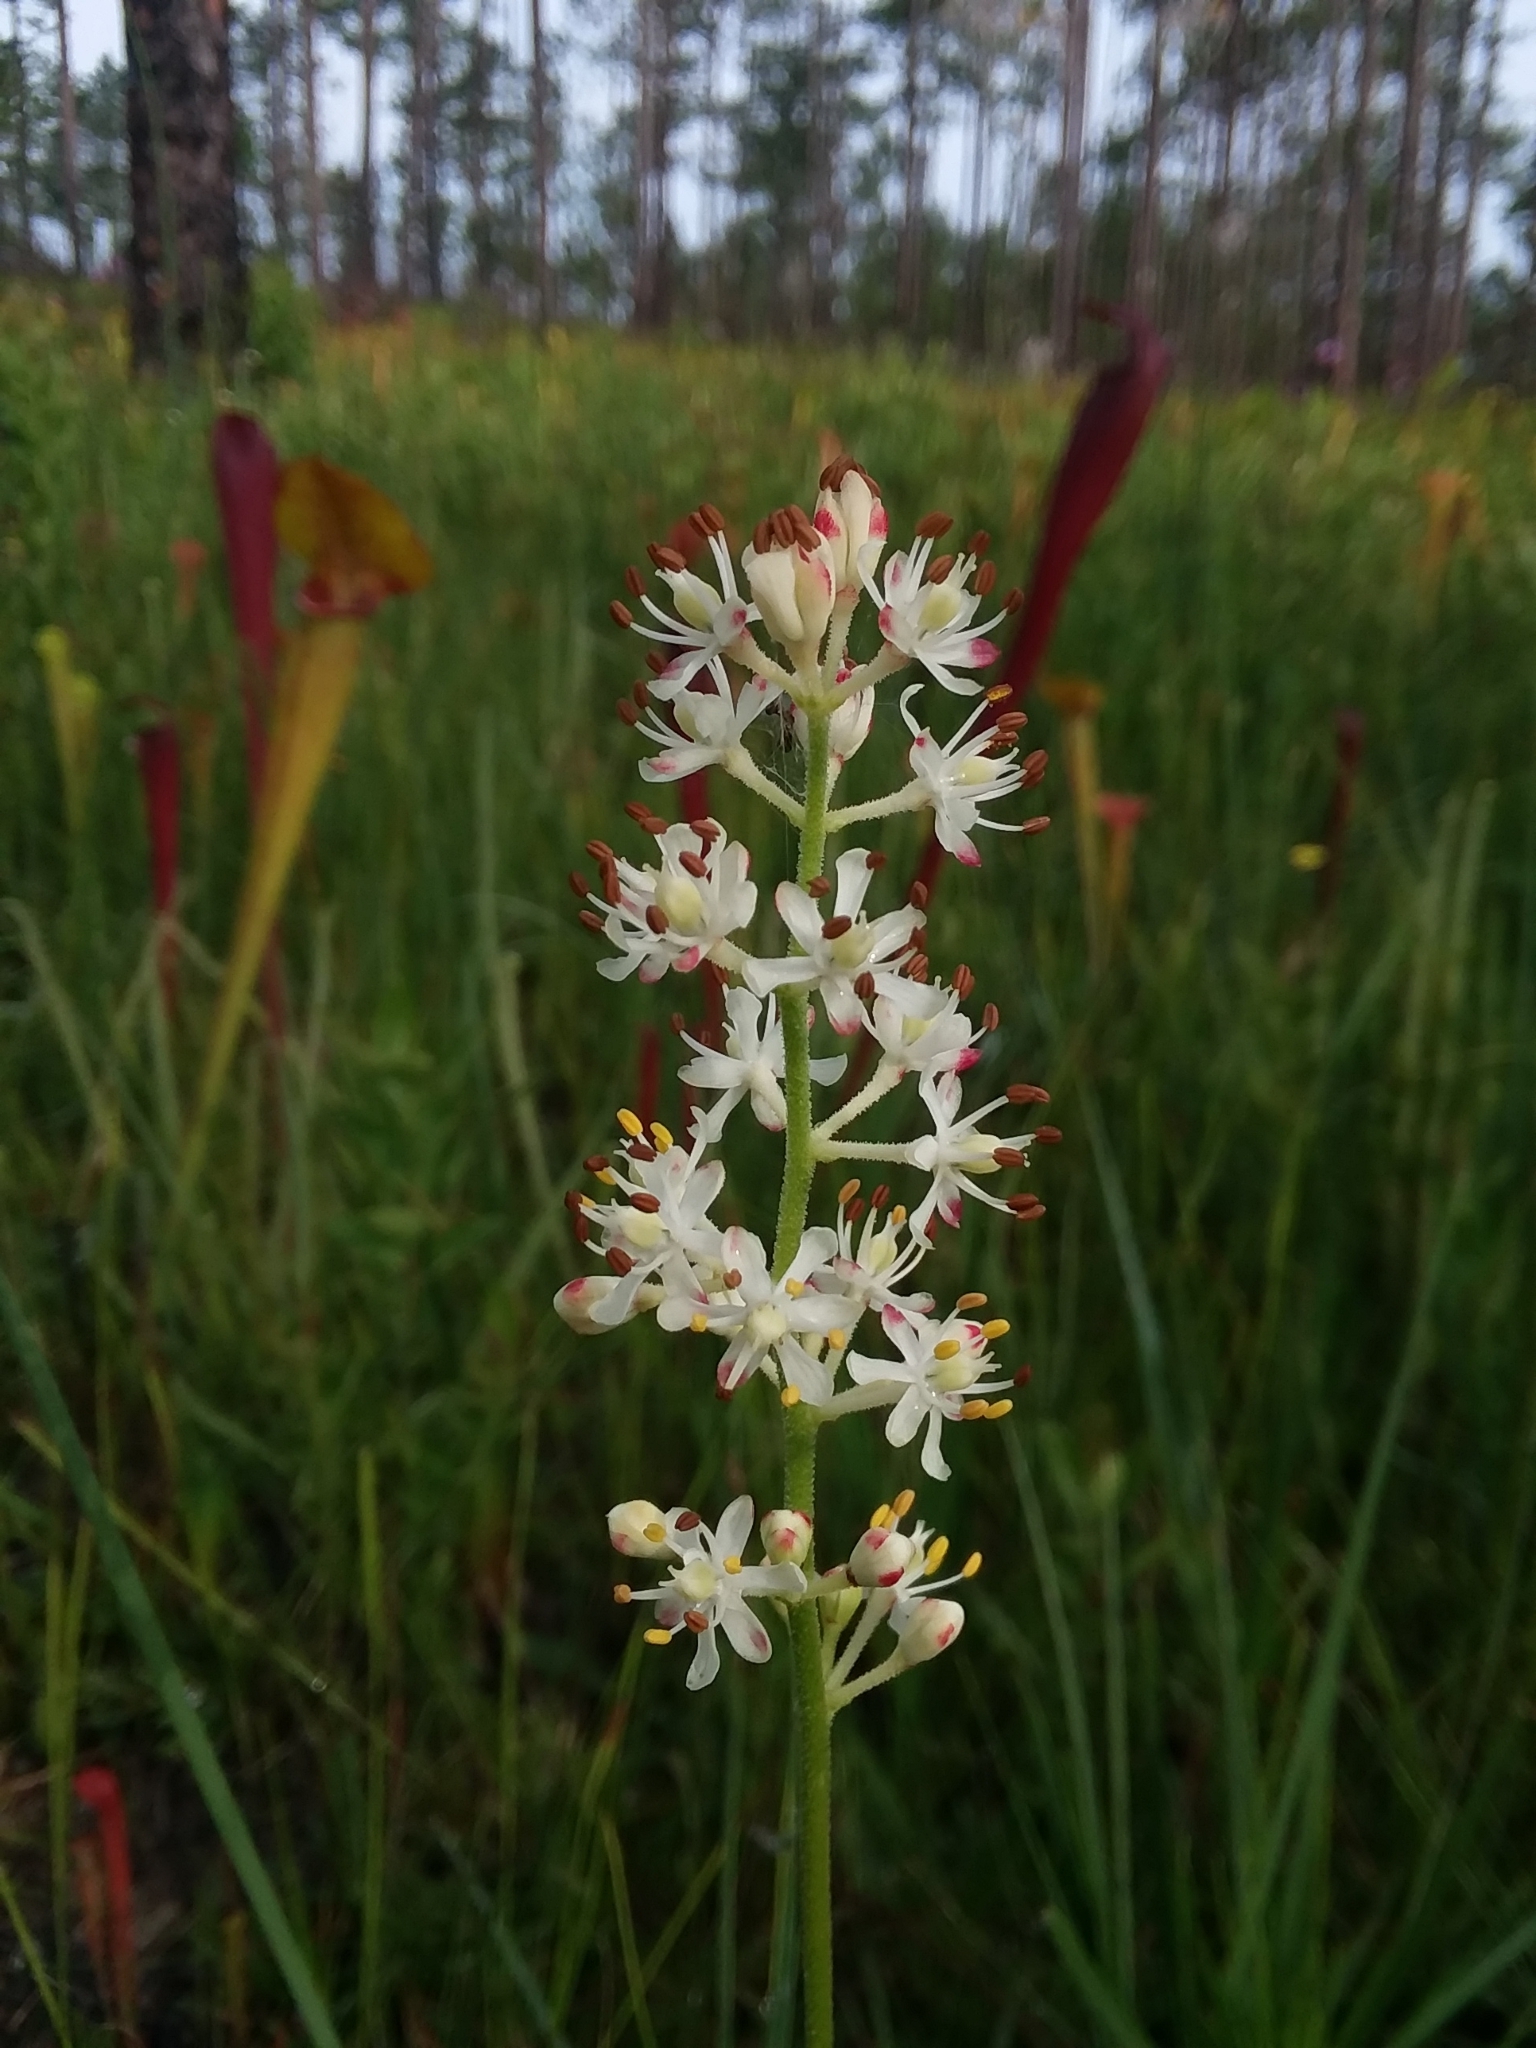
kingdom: Plantae
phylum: Tracheophyta
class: Liliopsida
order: Alismatales
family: Tofieldiaceae
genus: Triantha
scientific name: Triantha racemosa
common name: Coastal false asphodel
